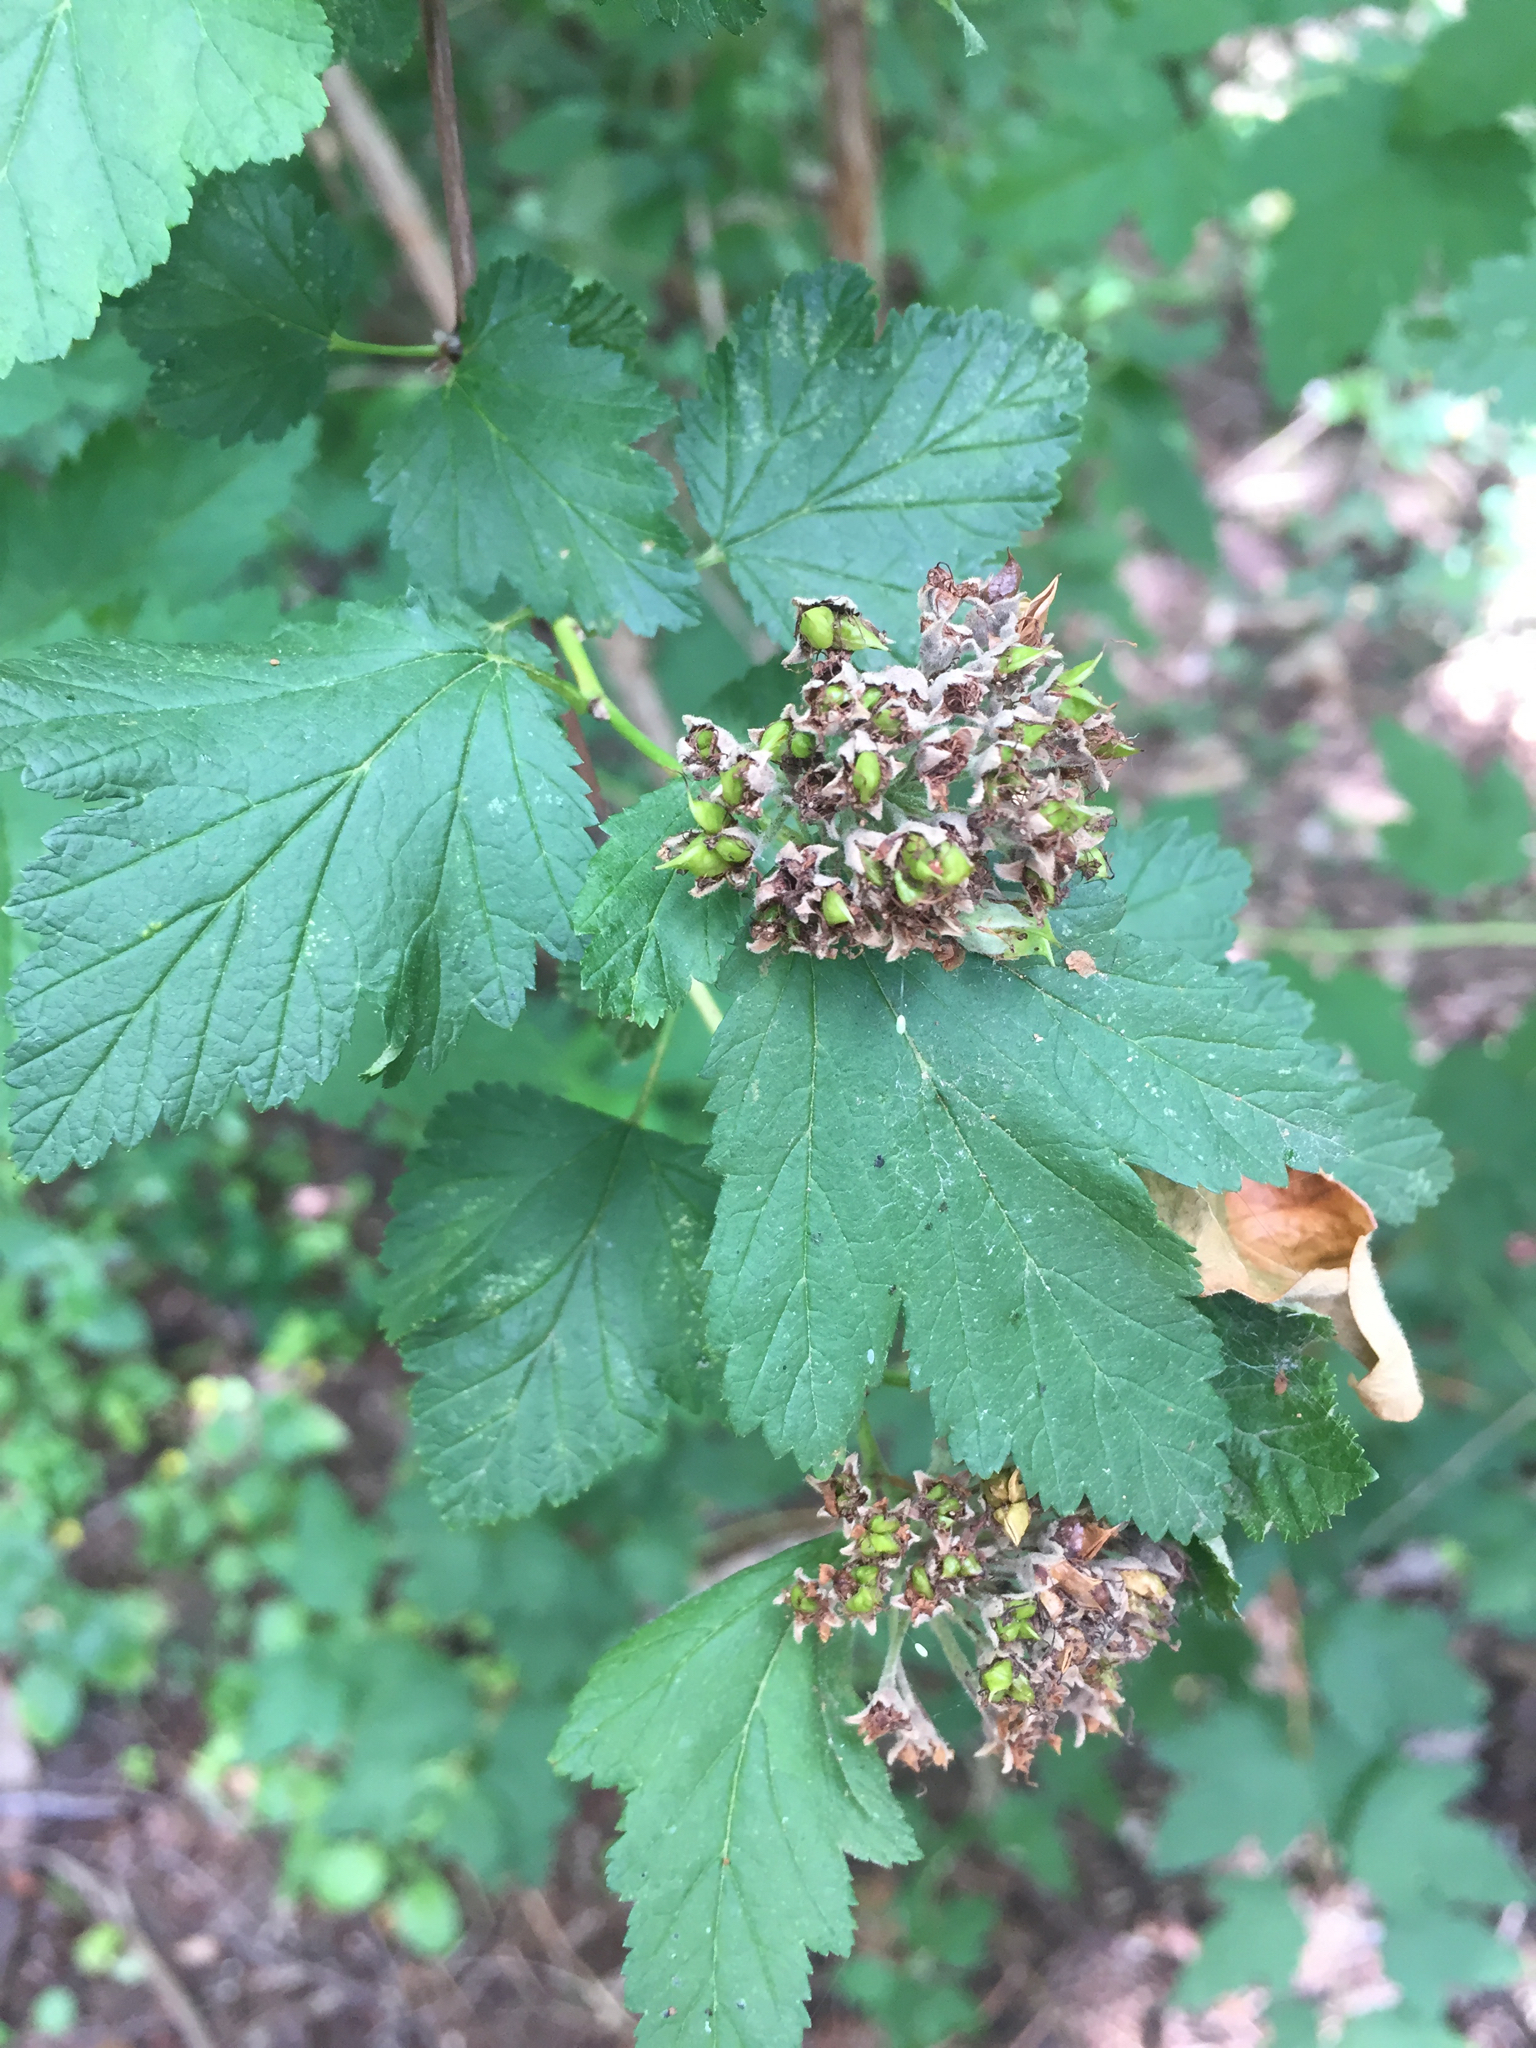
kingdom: Plantae
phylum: Tracheophyta
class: Magnoliopsida
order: Rosales
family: Rosaceae
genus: Physocarpus
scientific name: Physocarpus capitatus
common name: Pacific ninebark
